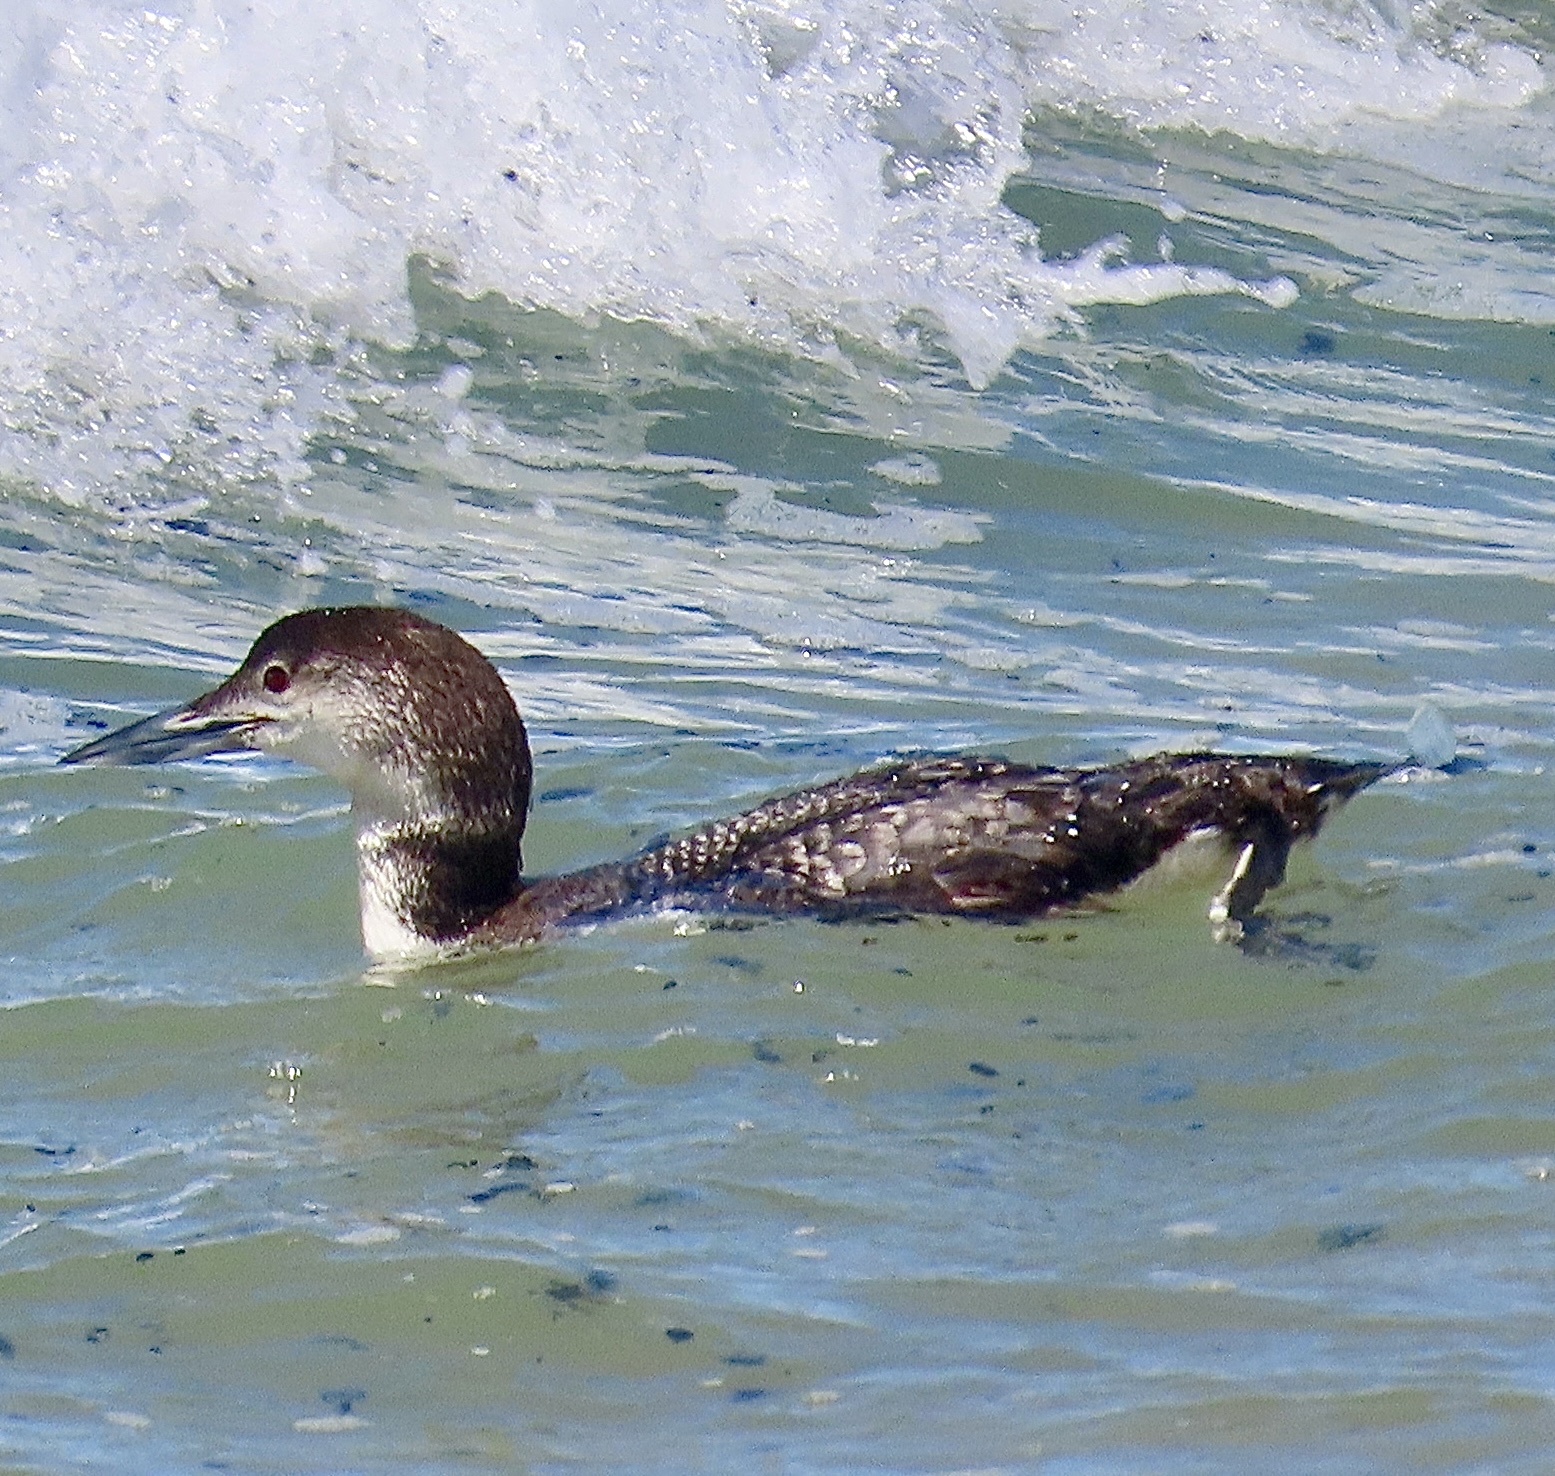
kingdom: Animalia
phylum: Chordata
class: Aves
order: Gaviiformes
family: Gaviidae
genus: Gavia
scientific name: Gavia immer
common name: Common loon
